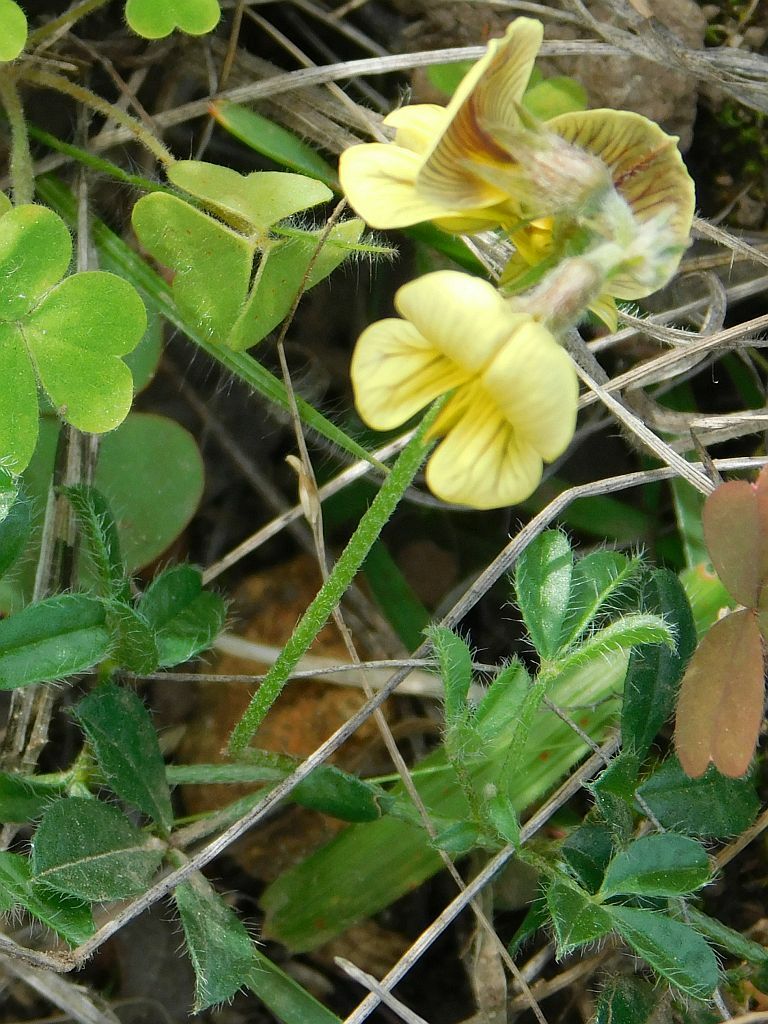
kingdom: Plantae
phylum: Tracheophyta
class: Magnoliopsida
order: Fabales
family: Fabaceae
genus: Lotononis
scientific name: Lotononis umbellata
